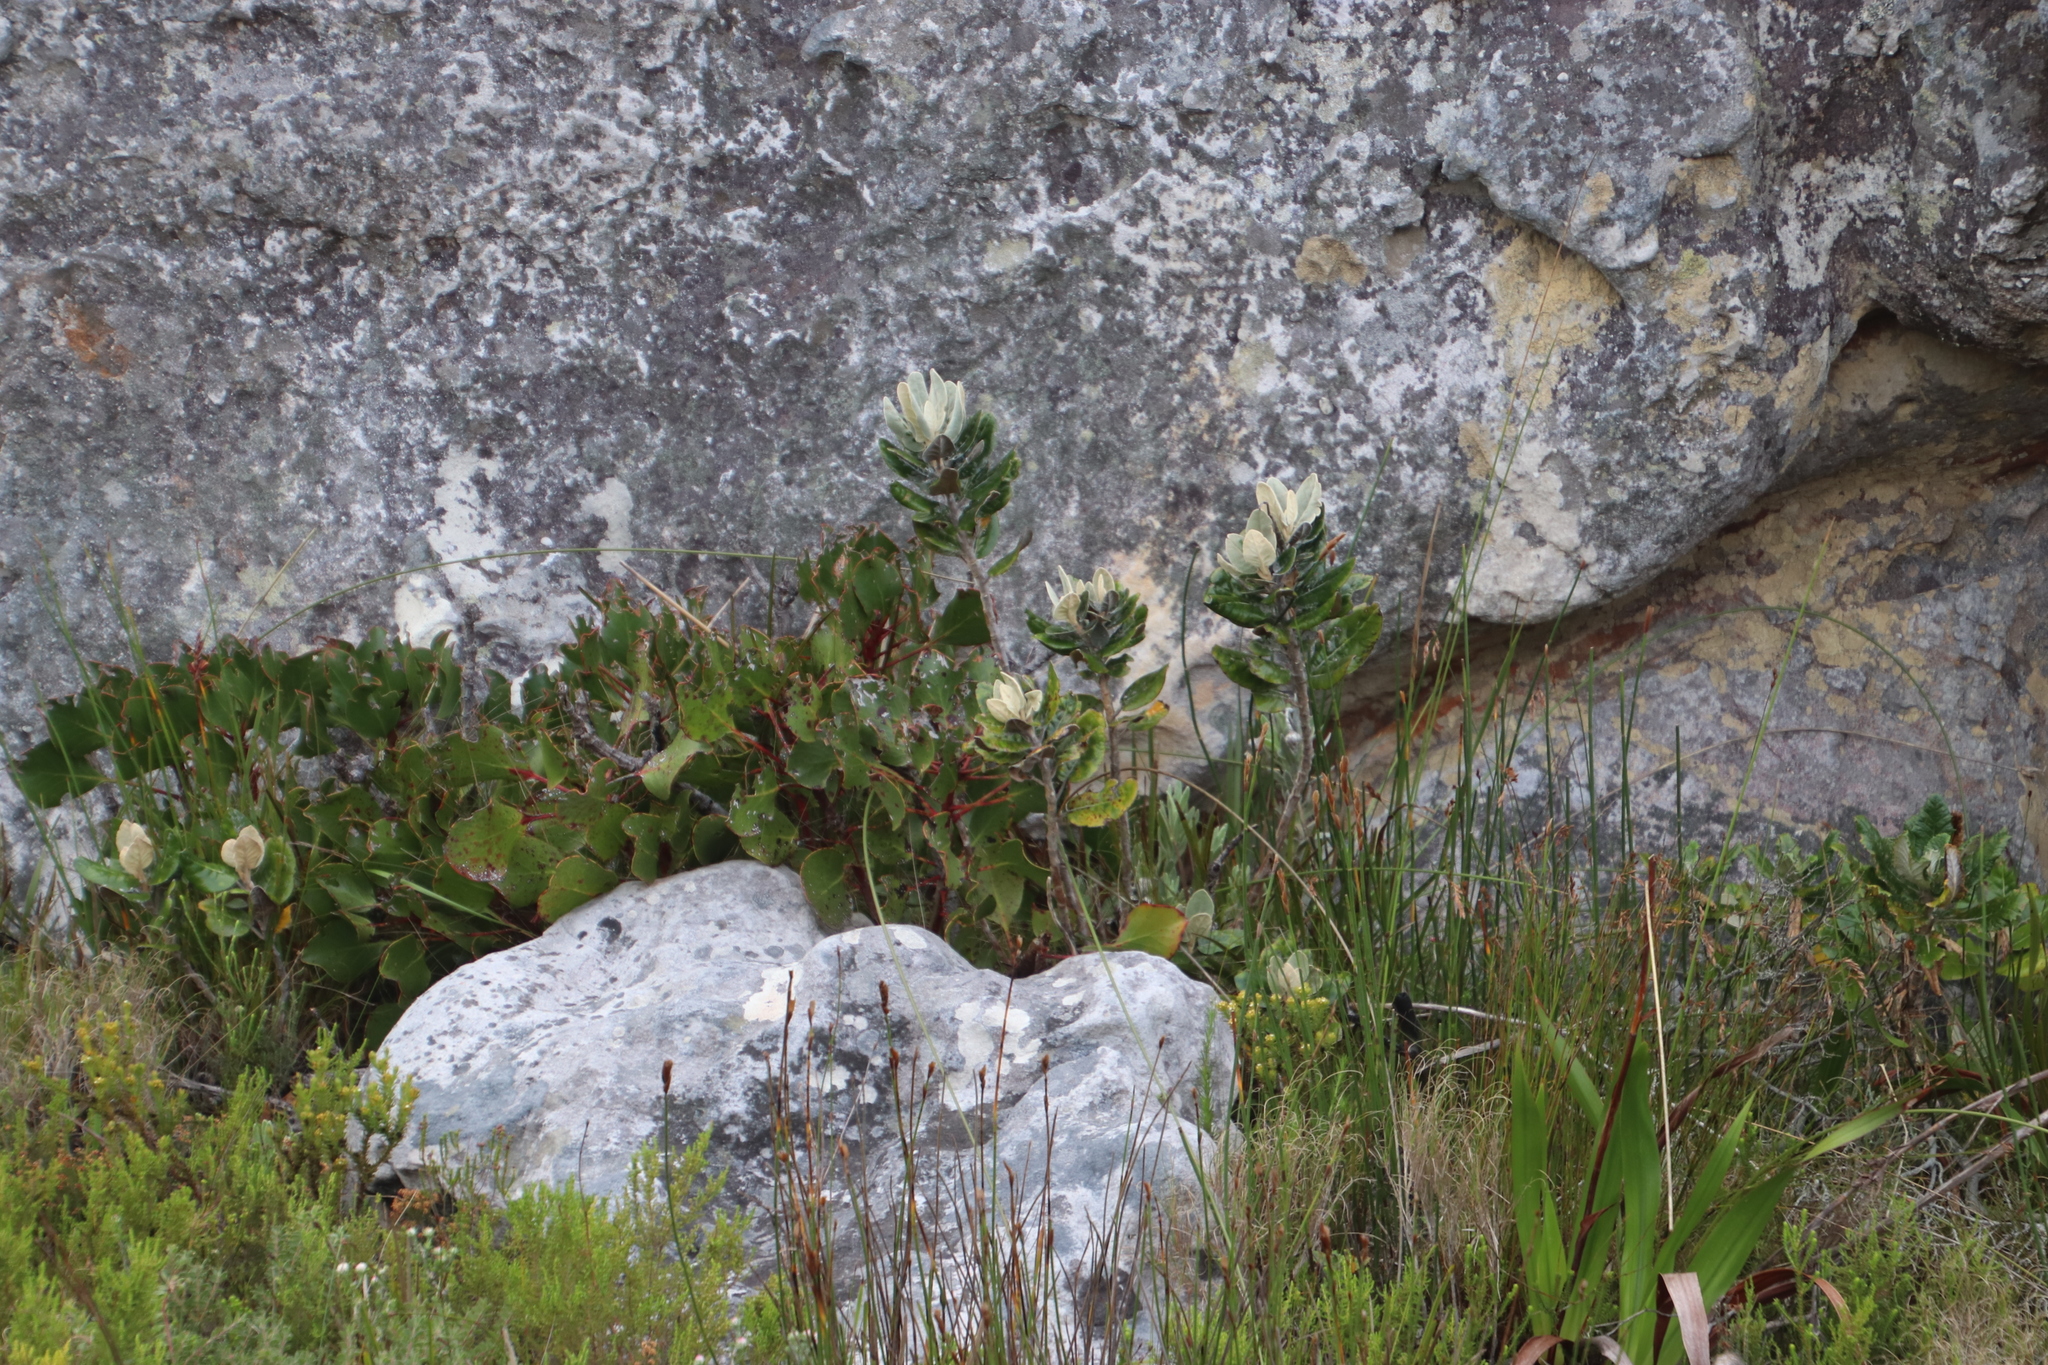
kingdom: Plantae
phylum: Tracheophyta
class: Magnoliopsida
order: Apiales
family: Apiaceae
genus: Hermas
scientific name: Hermas villosa
